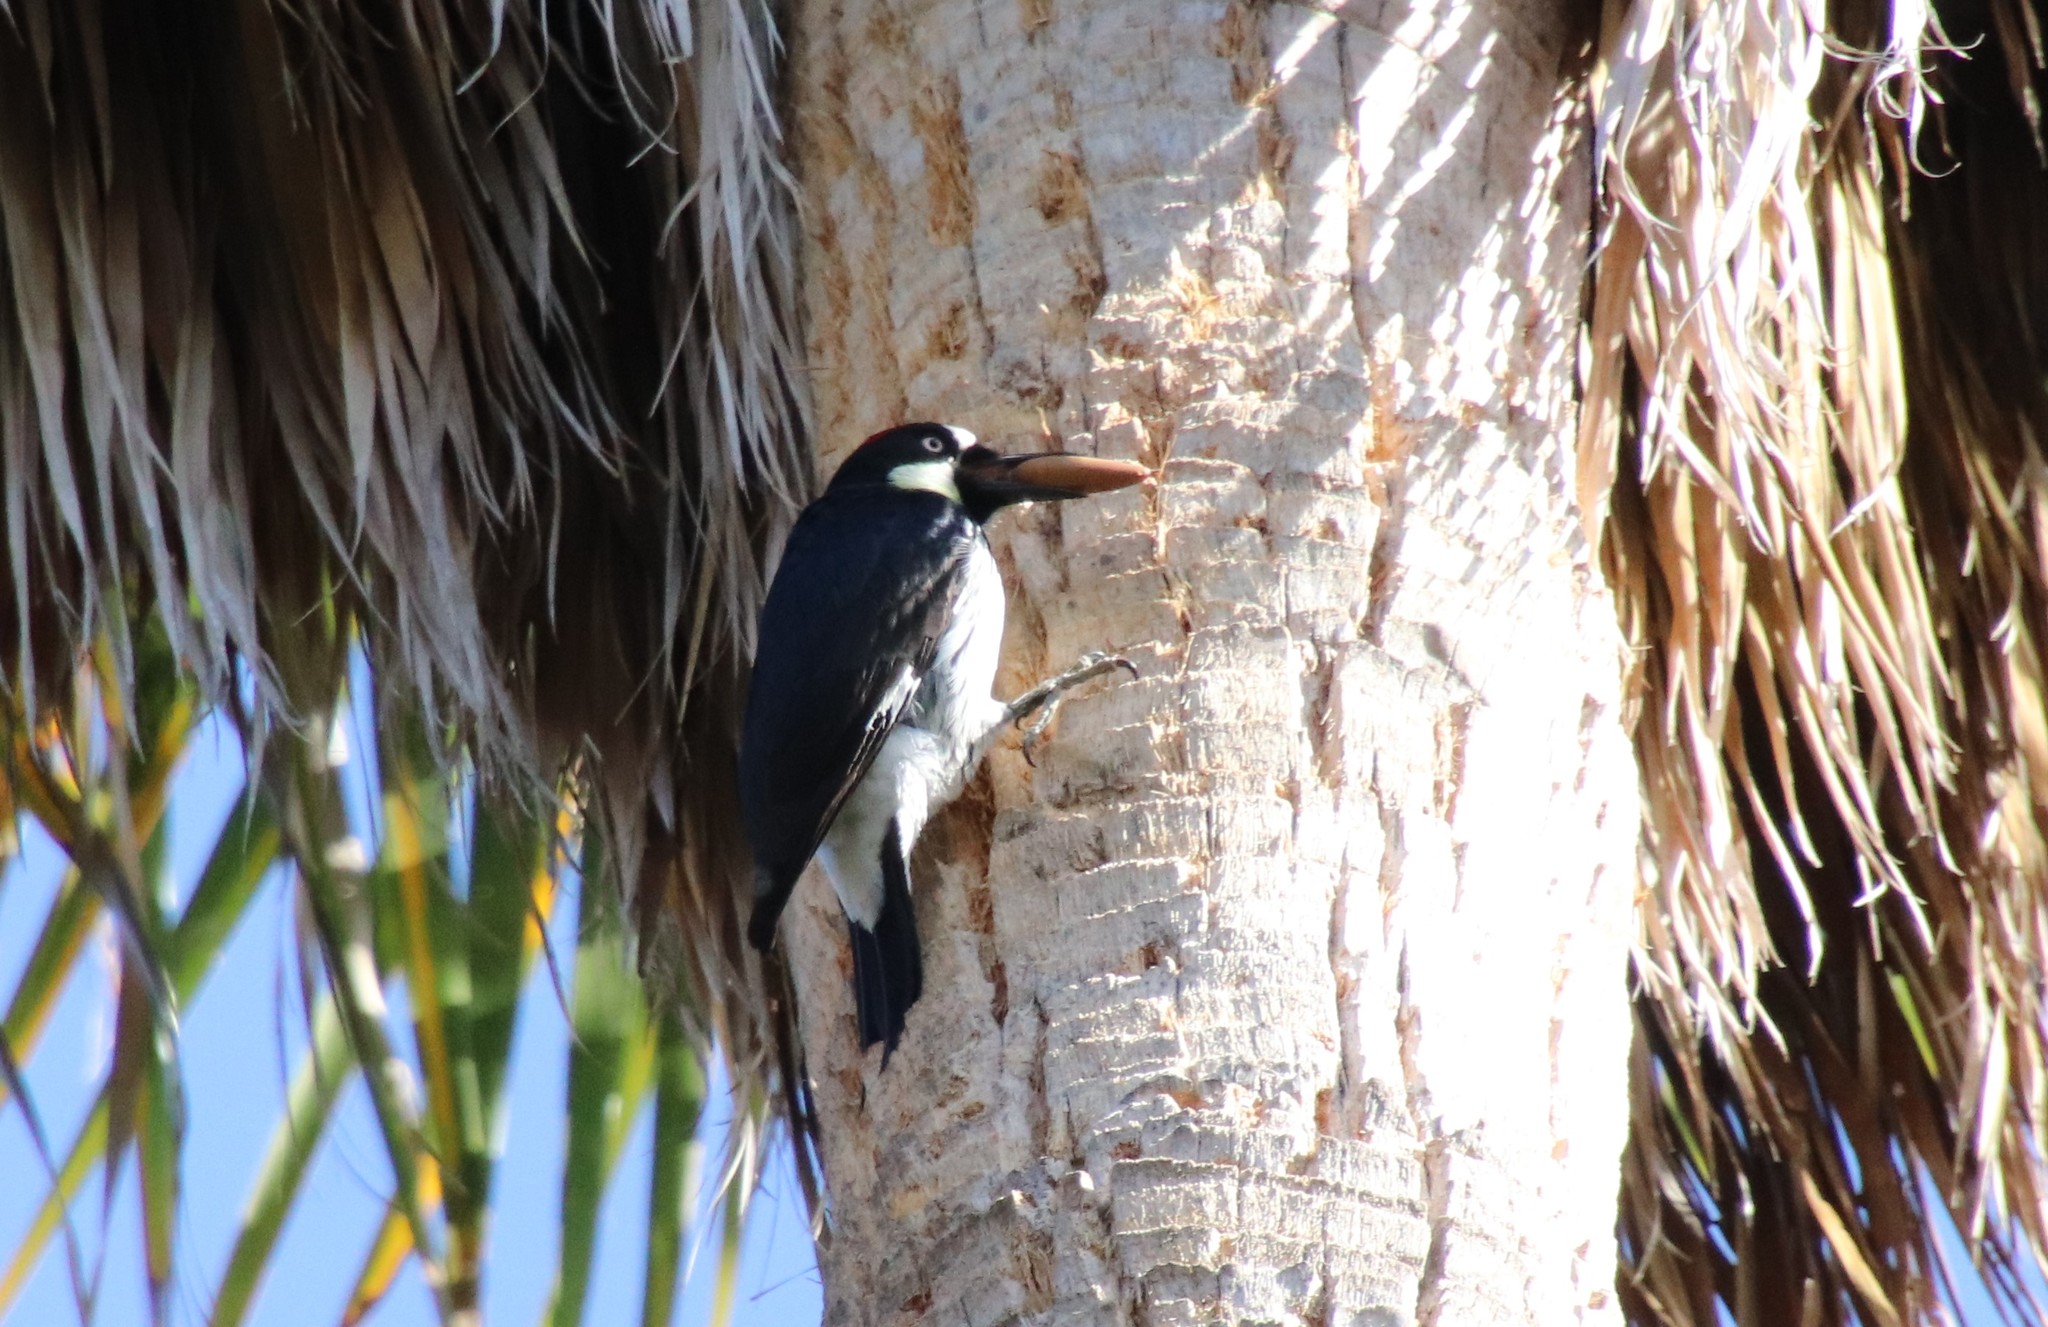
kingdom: Animalia
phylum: Chordata
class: Aves
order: Piciformes
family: Picidae
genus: Melanerpes
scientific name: Melanerpes formicivorus
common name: Acorn woodpecker
